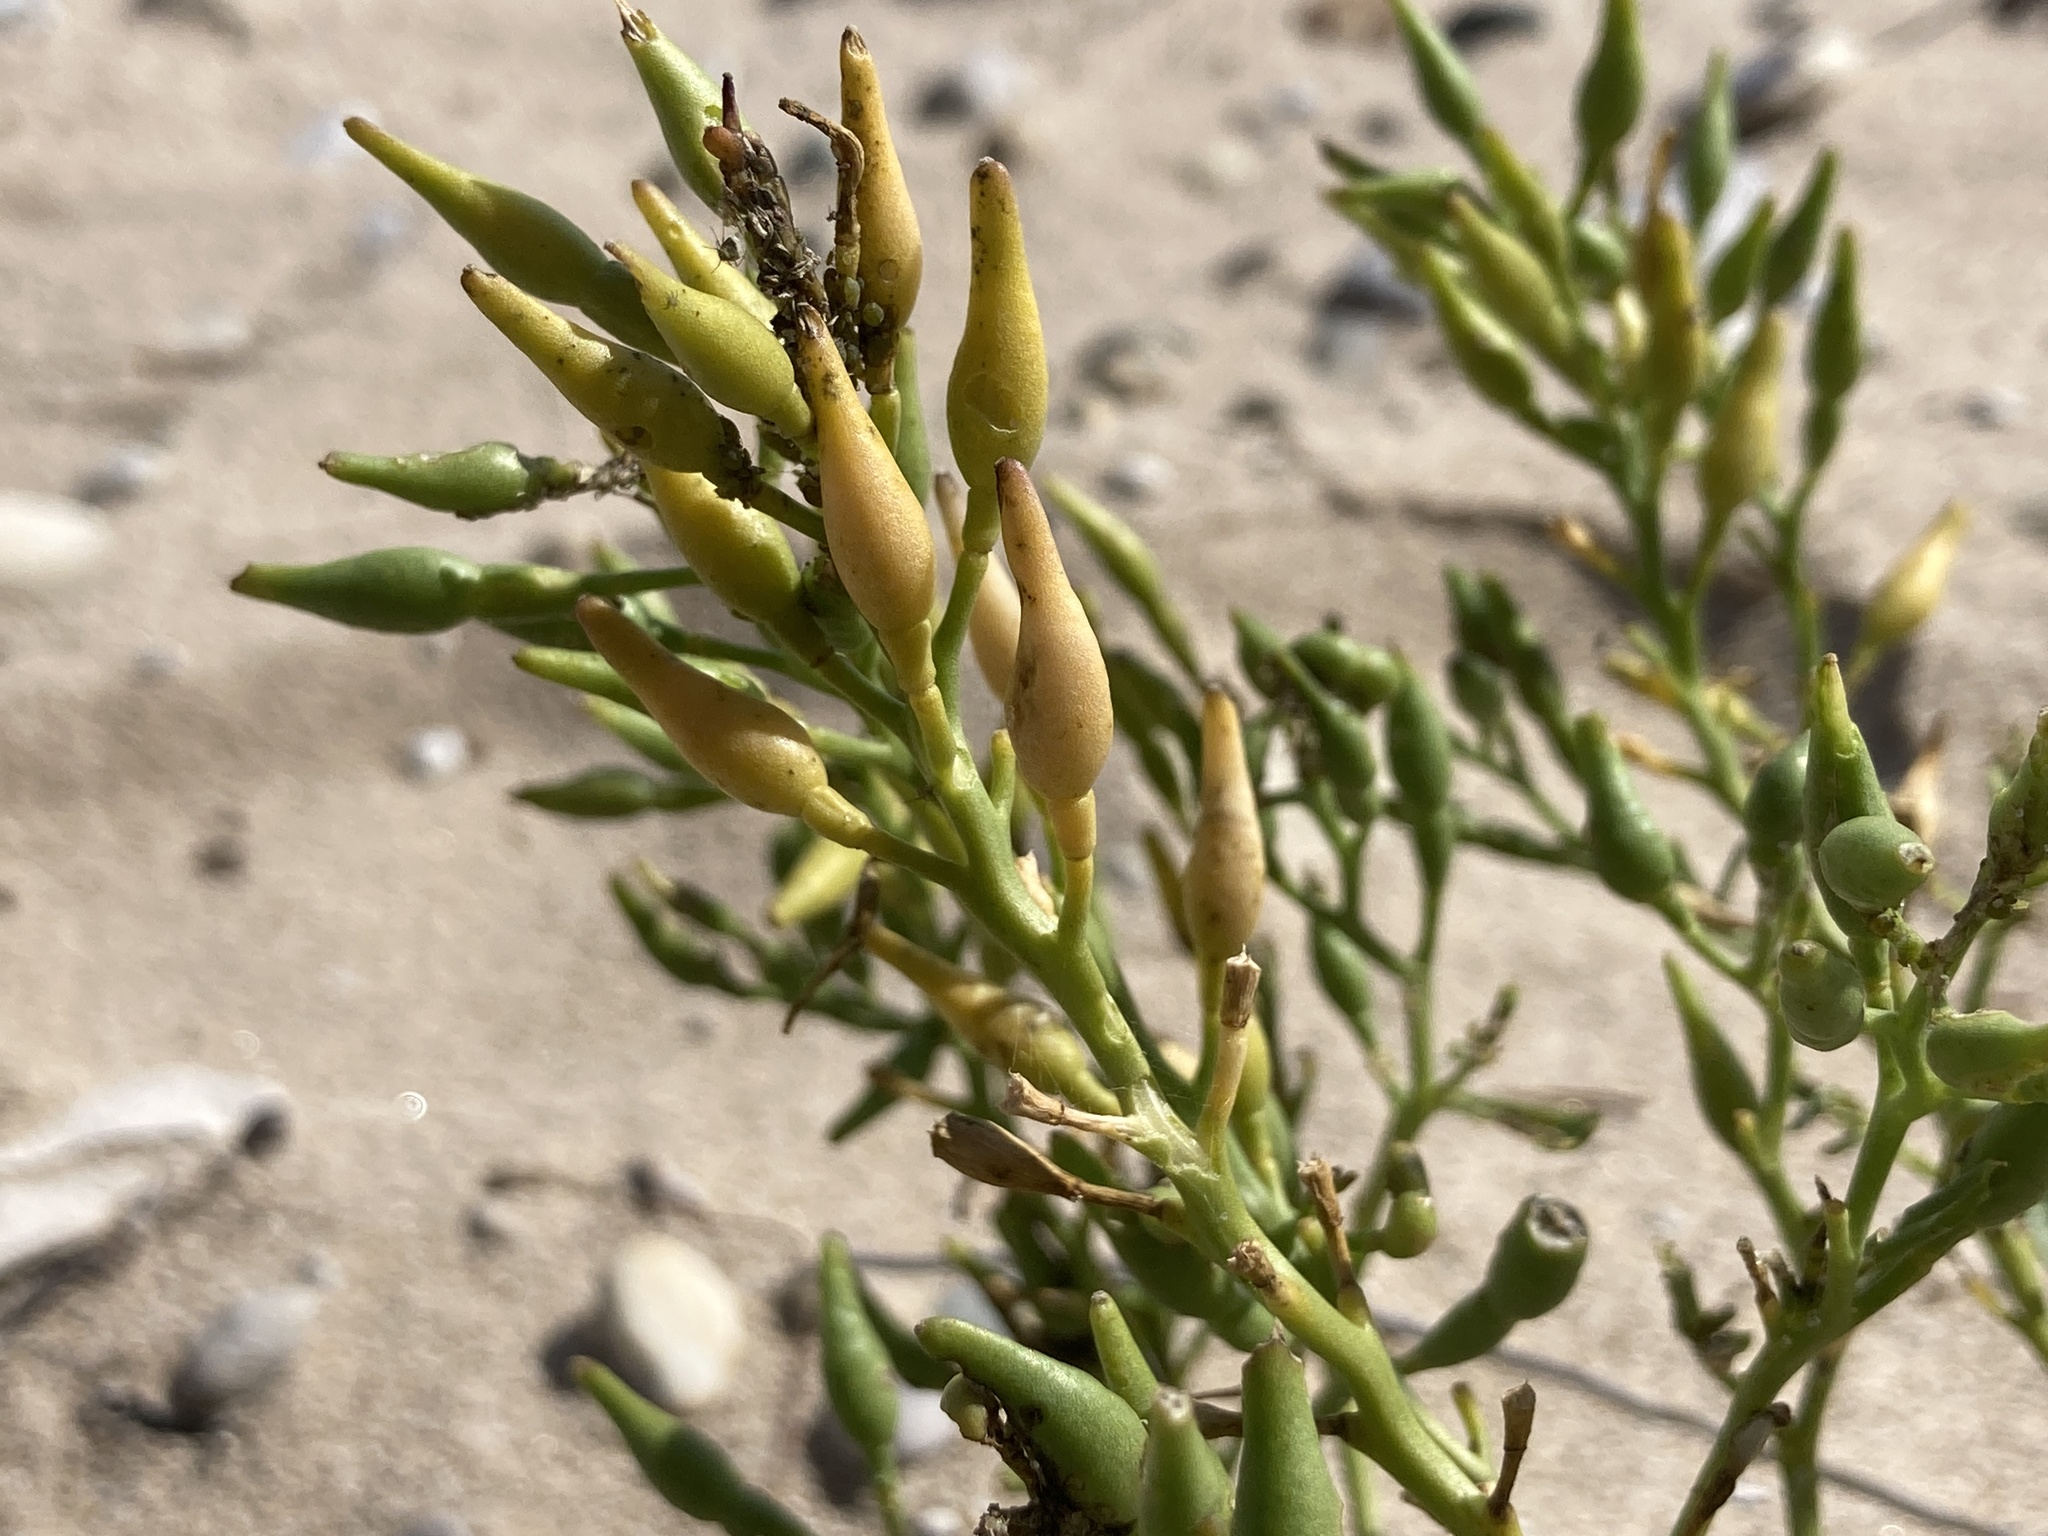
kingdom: Plantae
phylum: Tracheophyta
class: Magnoliopsida
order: Brassicales
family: Brassicaceae
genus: Cakile
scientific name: Cakile edentula
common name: American sea rocket
